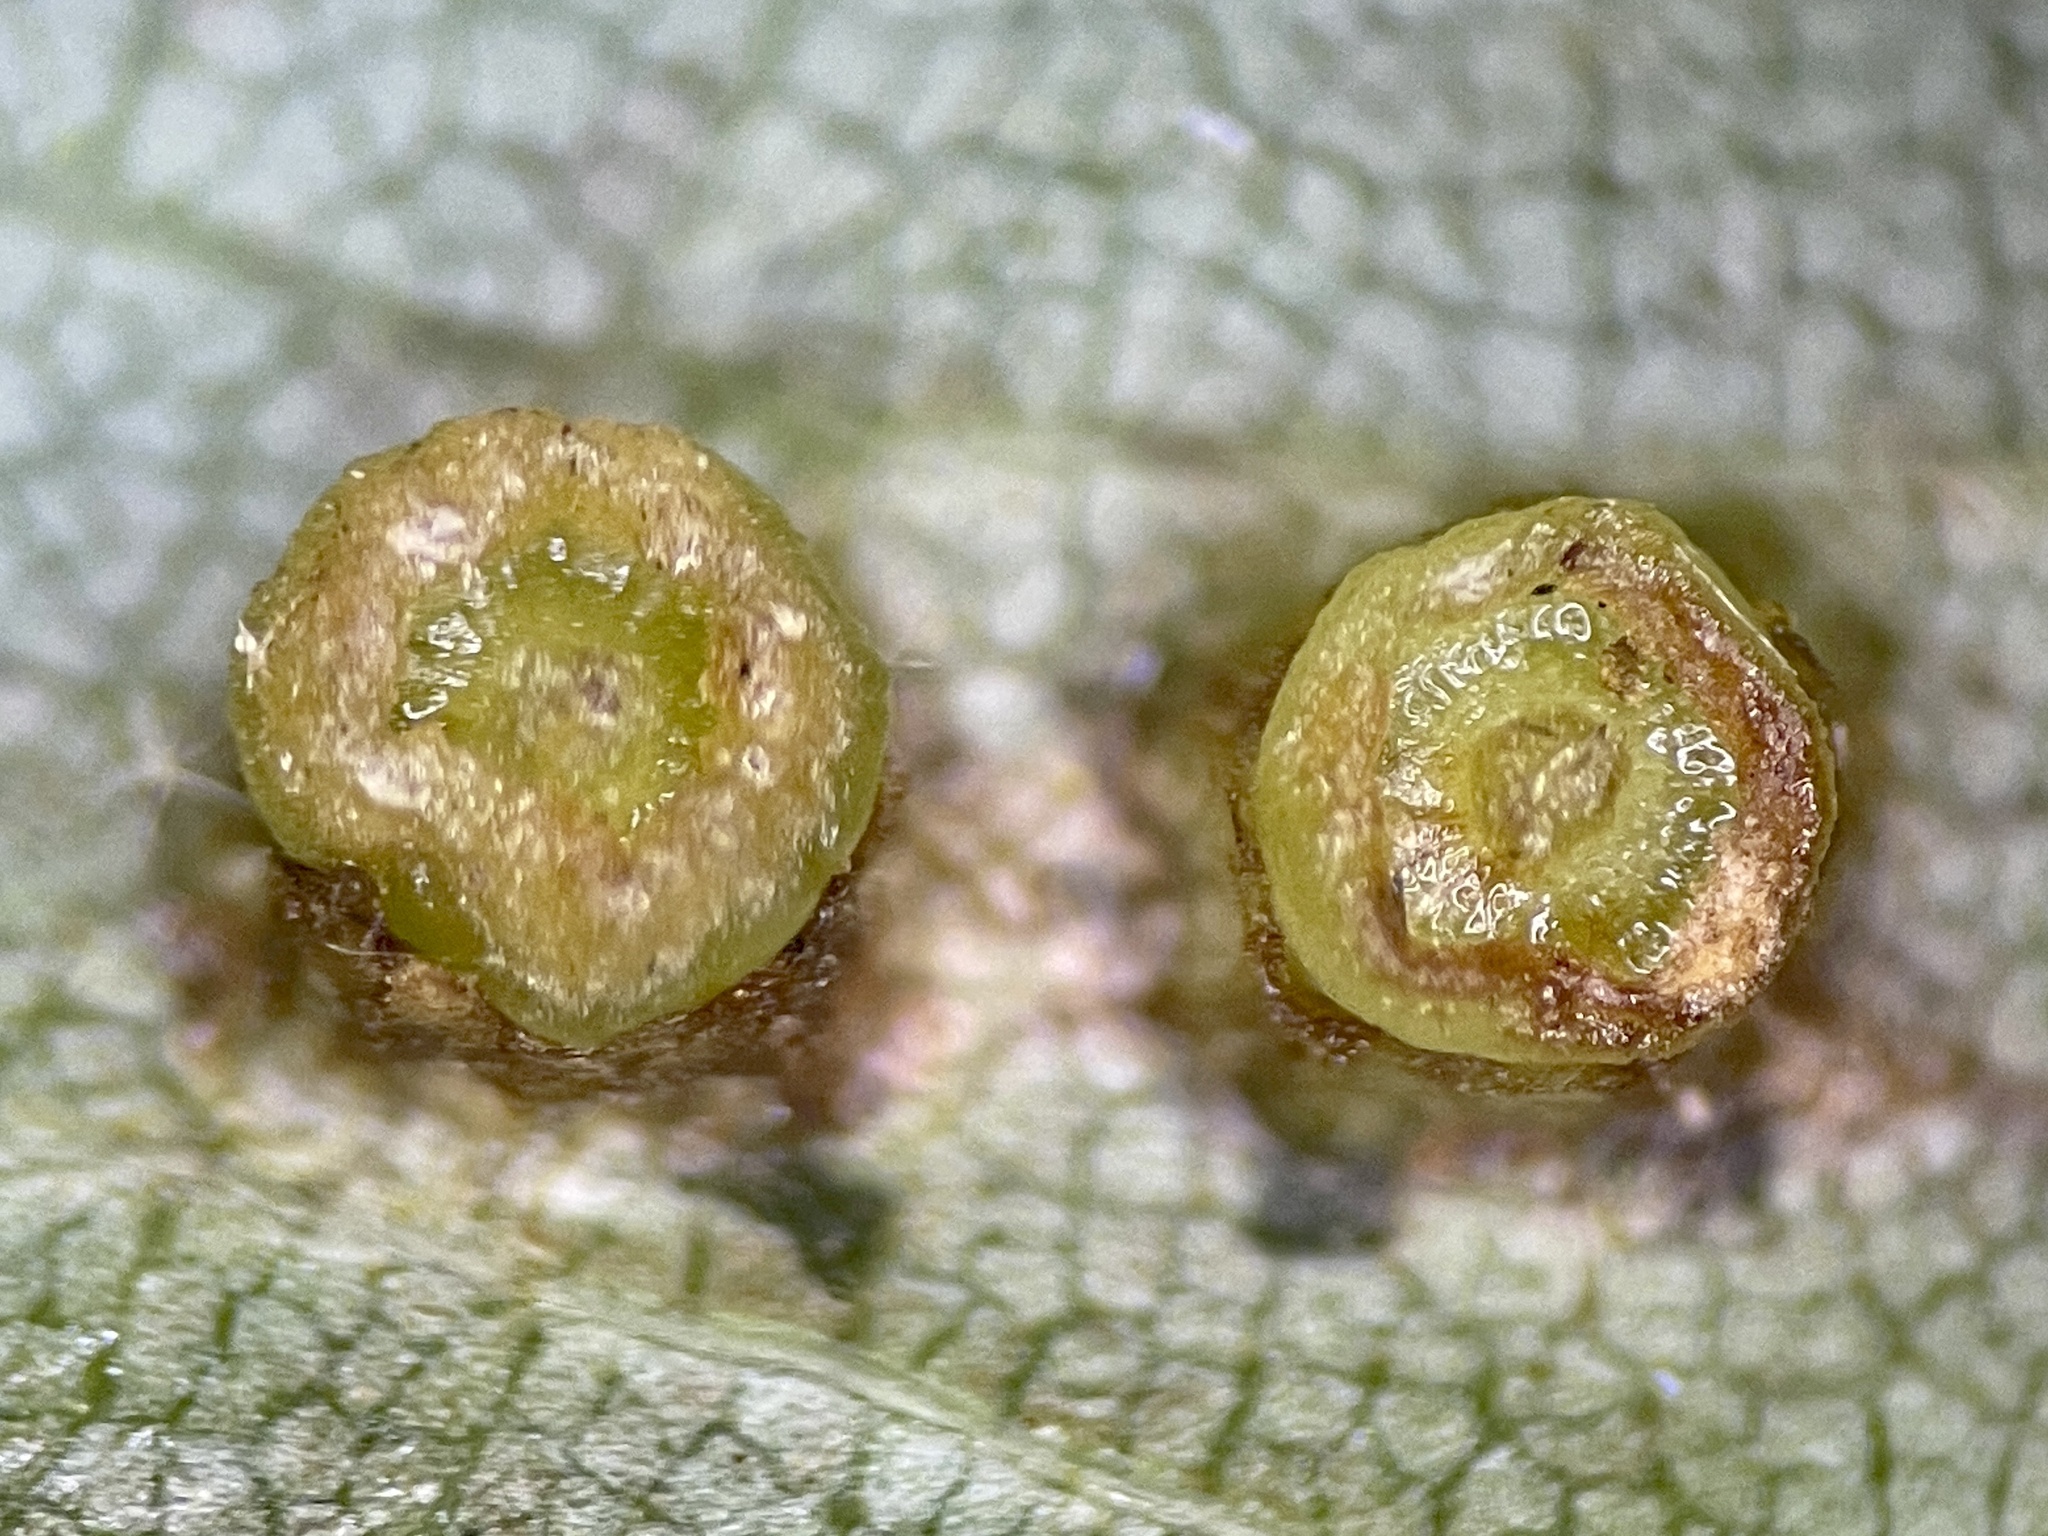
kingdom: Animalia
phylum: Arthropoda
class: Insecta
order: Diptera
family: Cecidomyiidae
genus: Caryomyia
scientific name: Caryomyia melicrustum
